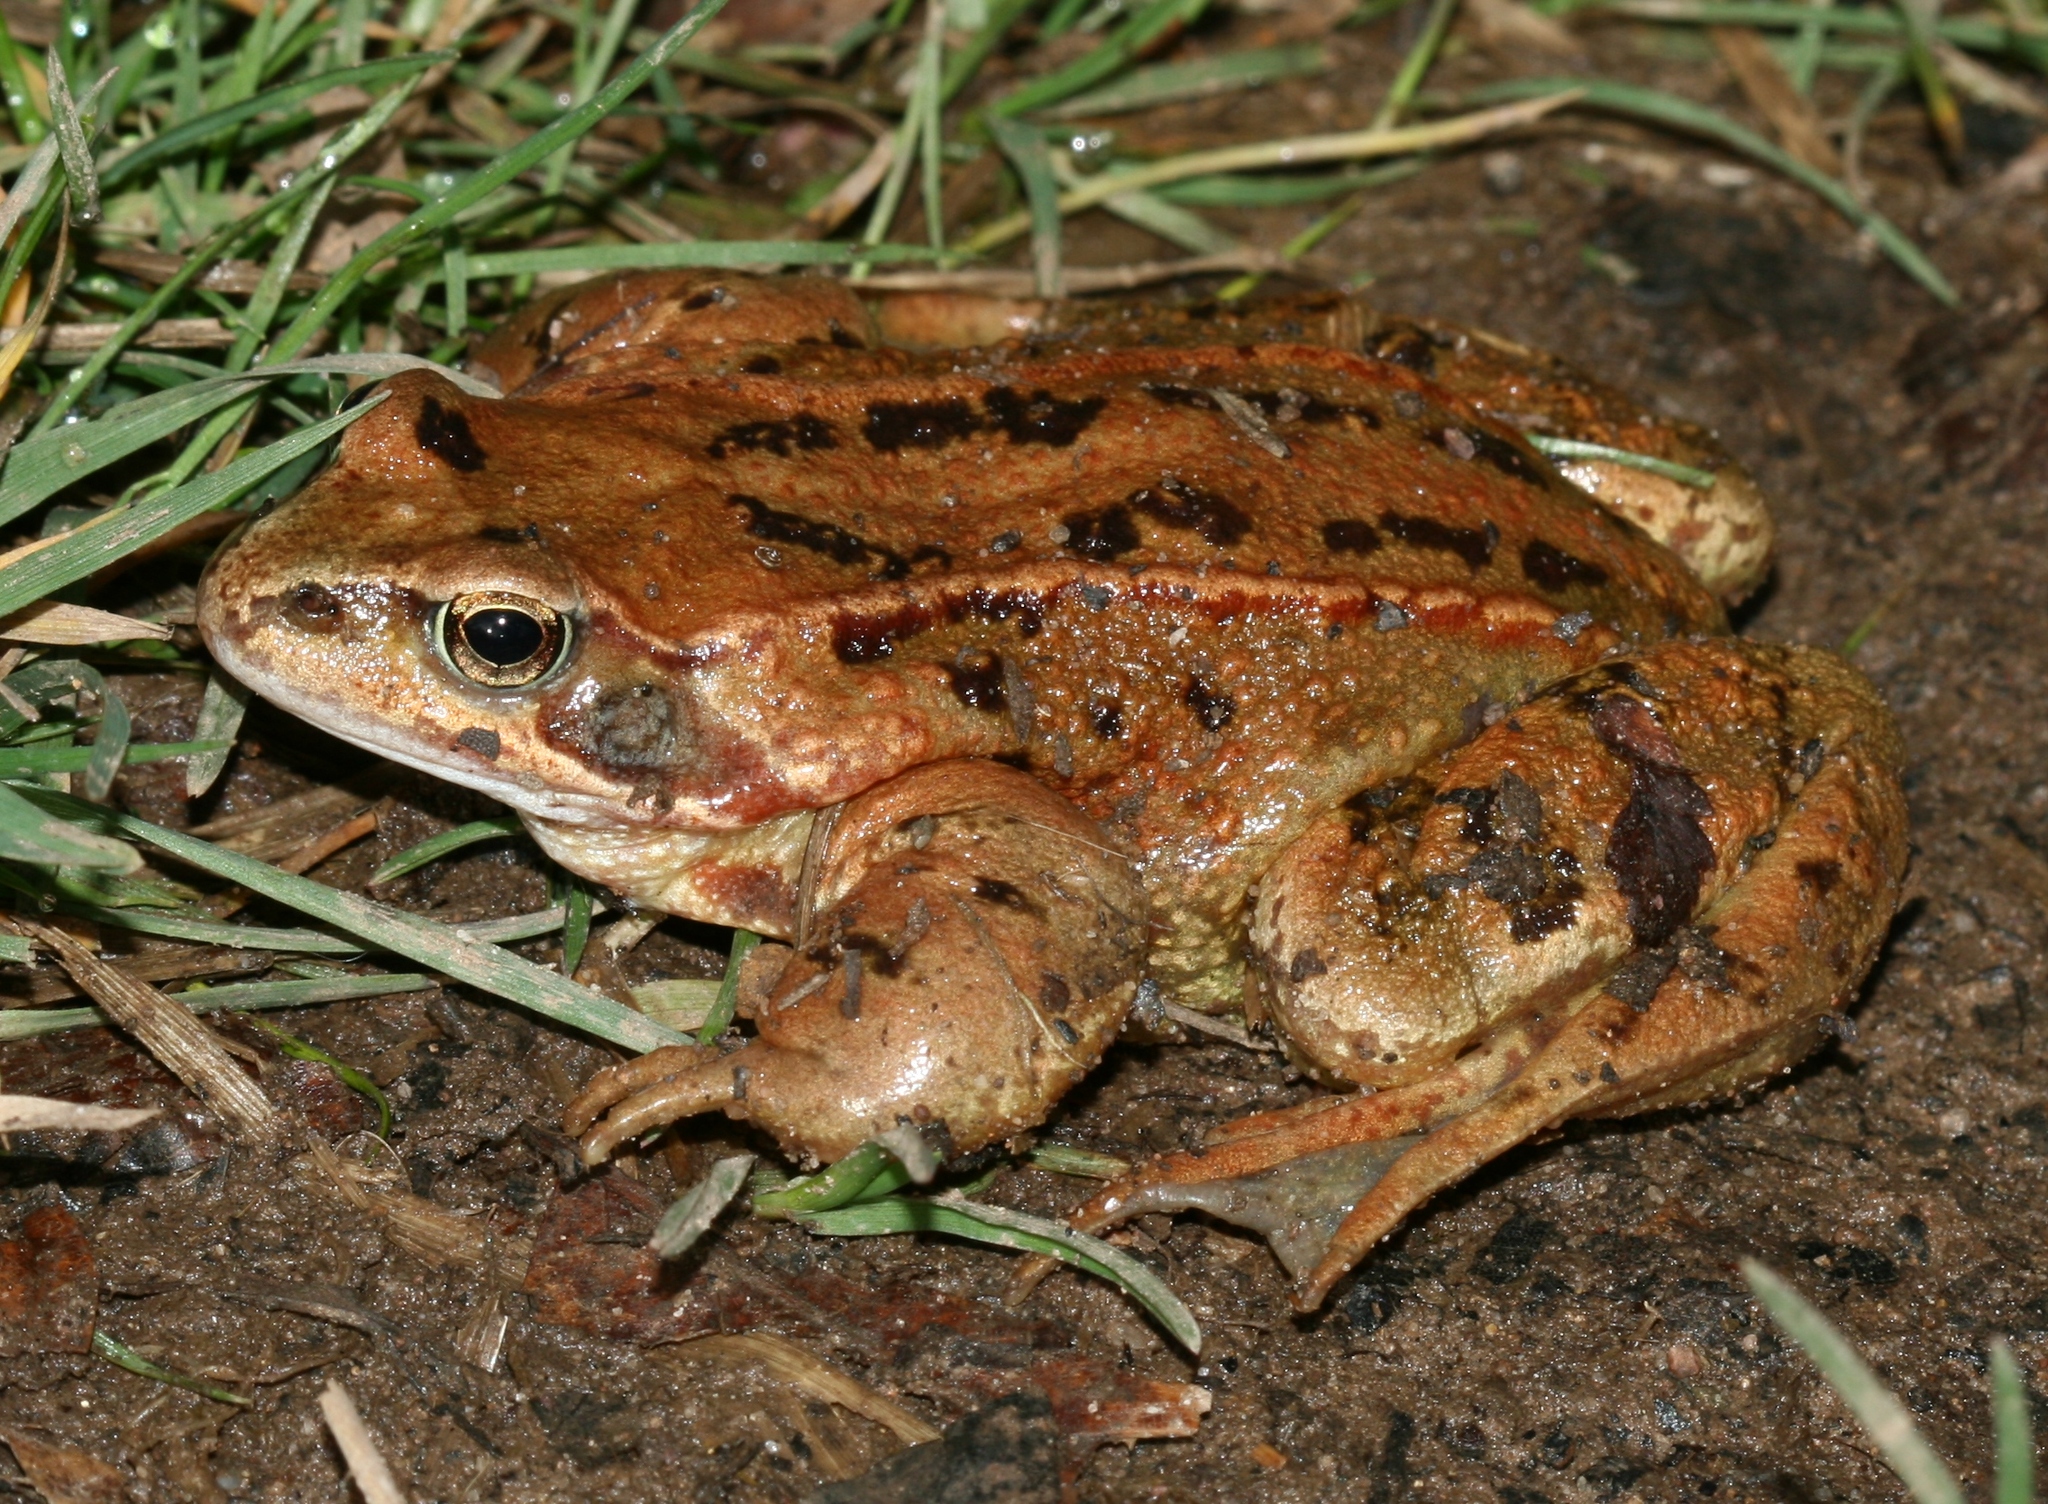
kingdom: Animalia
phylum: Chordata
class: Amphibia
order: Anura
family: Ranidae
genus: Rana
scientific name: Rana temporaria
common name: Common frog
